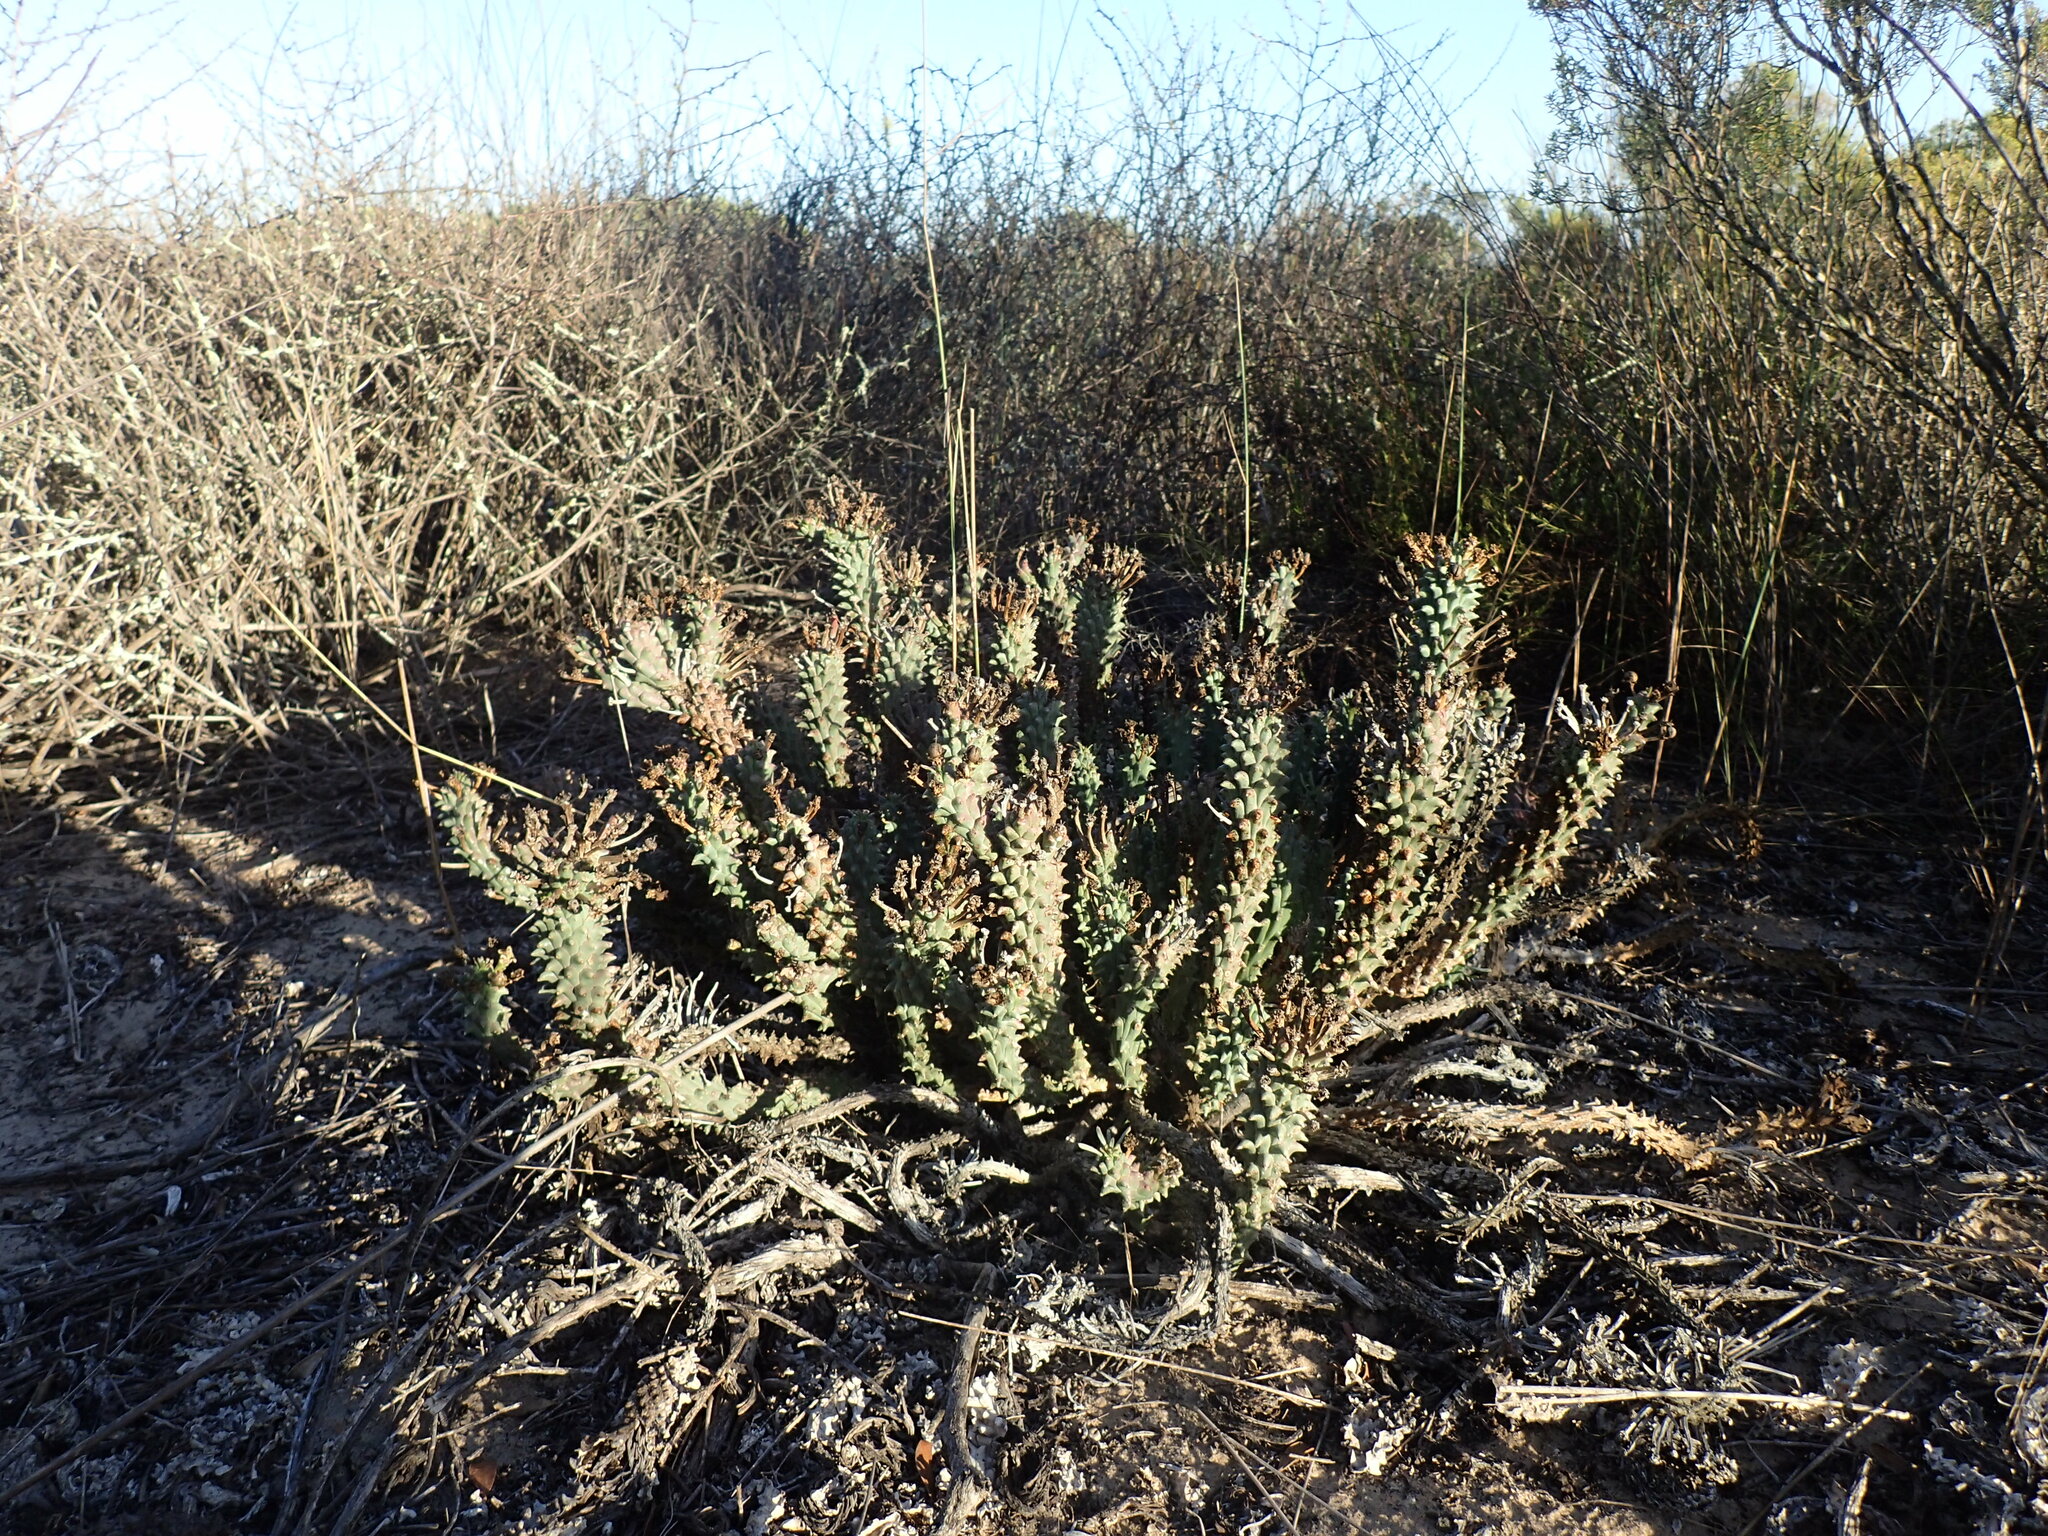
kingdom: Plantae
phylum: Tracheophyta
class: Magnoliopsida
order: Malpighiales
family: Euphorbiaceae
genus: Euphorbia
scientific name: Euphorbia caput-medusae
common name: Medusa's-head
